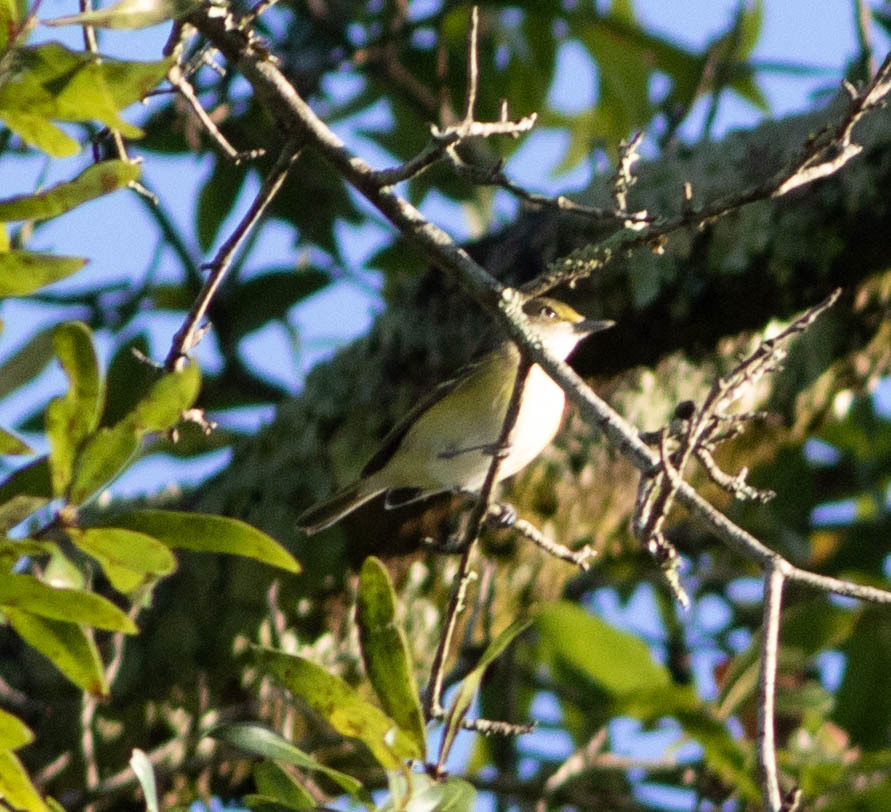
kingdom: Animalia
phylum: Chordata
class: Aves
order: Passeriformes
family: Vireonidae
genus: Vireo
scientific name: Vireo griseus
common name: White-eyed vireo
